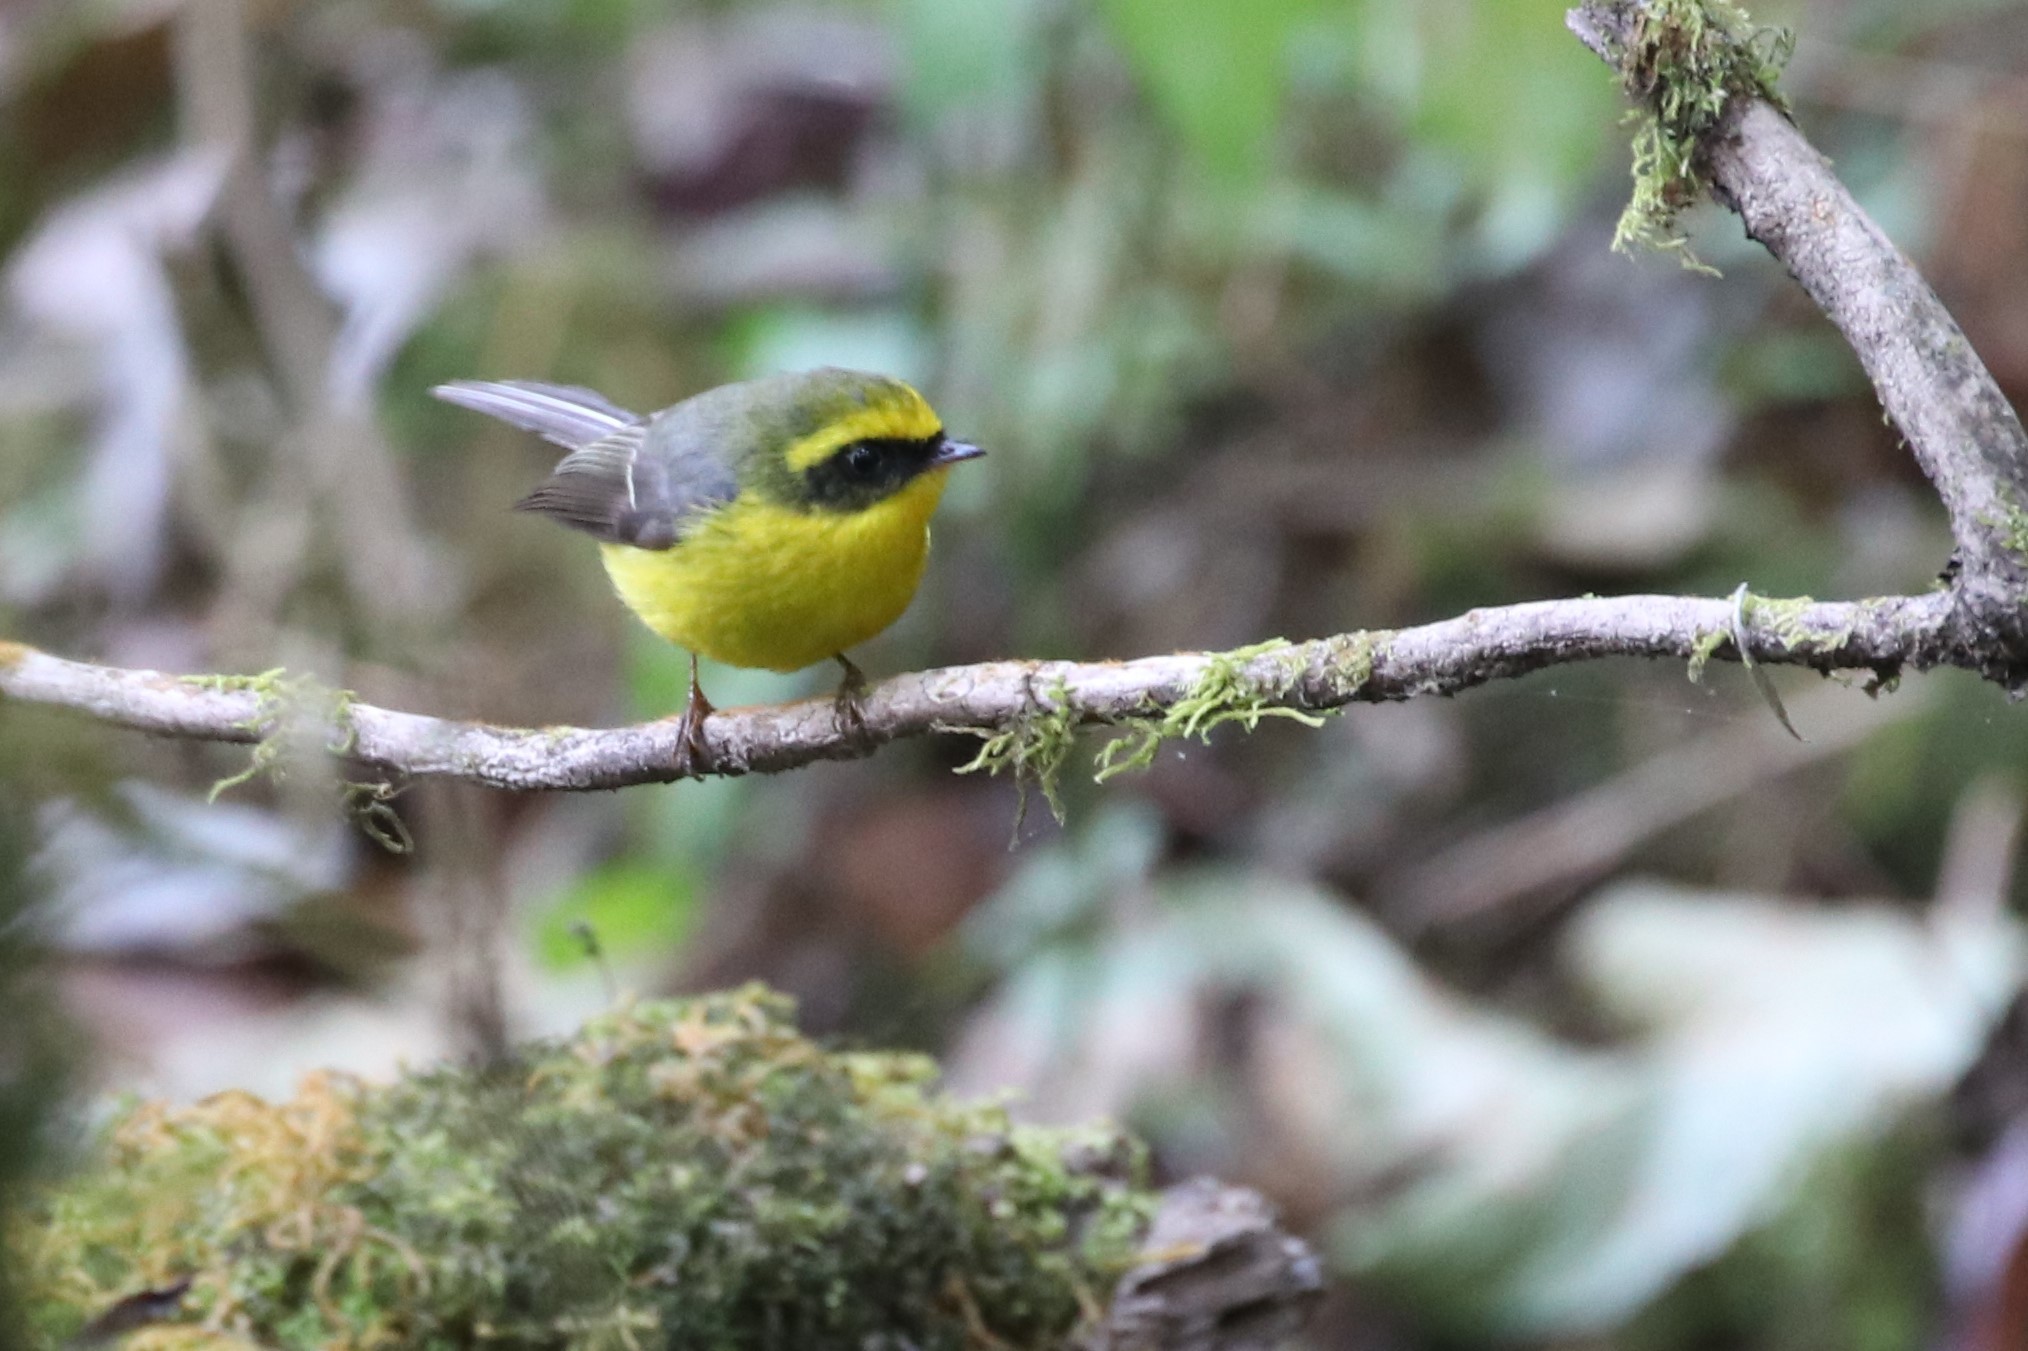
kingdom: Animalia
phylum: Chordata
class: Aves
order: Passeriformes
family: Stenostiridae
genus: Chelidorhynx
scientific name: Chelidorhynx hypoxantha
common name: Yellow-bellied fantail
